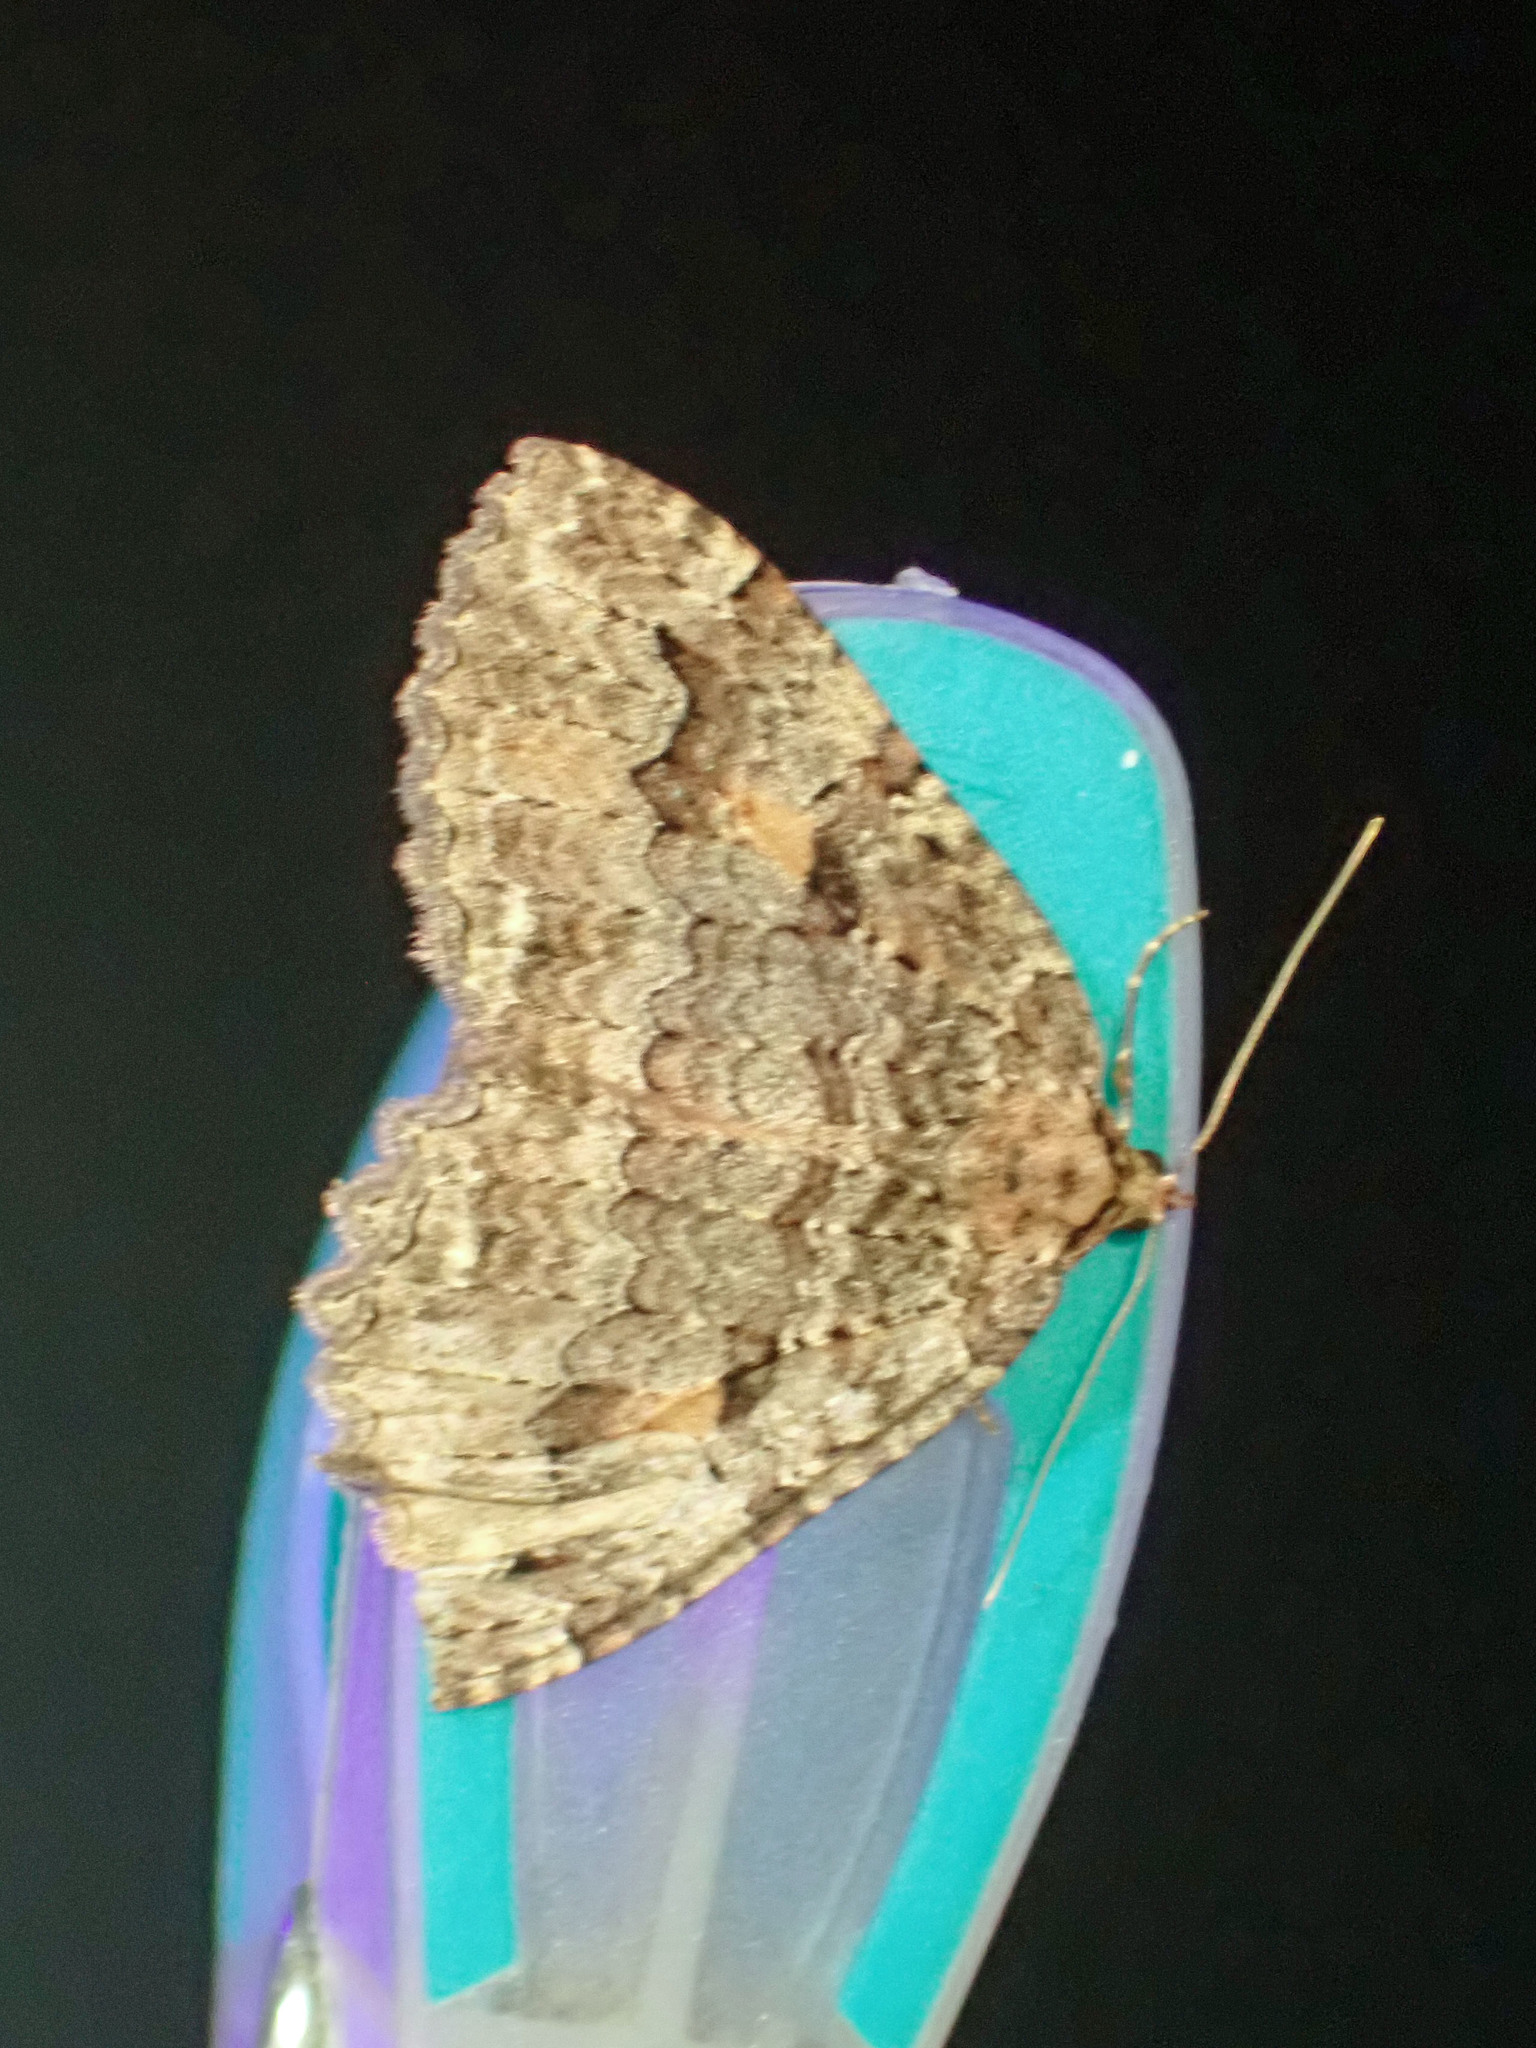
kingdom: Animalia
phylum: Arthropoda
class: Insecta
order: Lepidoptera
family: Geometridae
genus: Triphosa
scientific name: Triphosa haesitata
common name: Tissue moth
